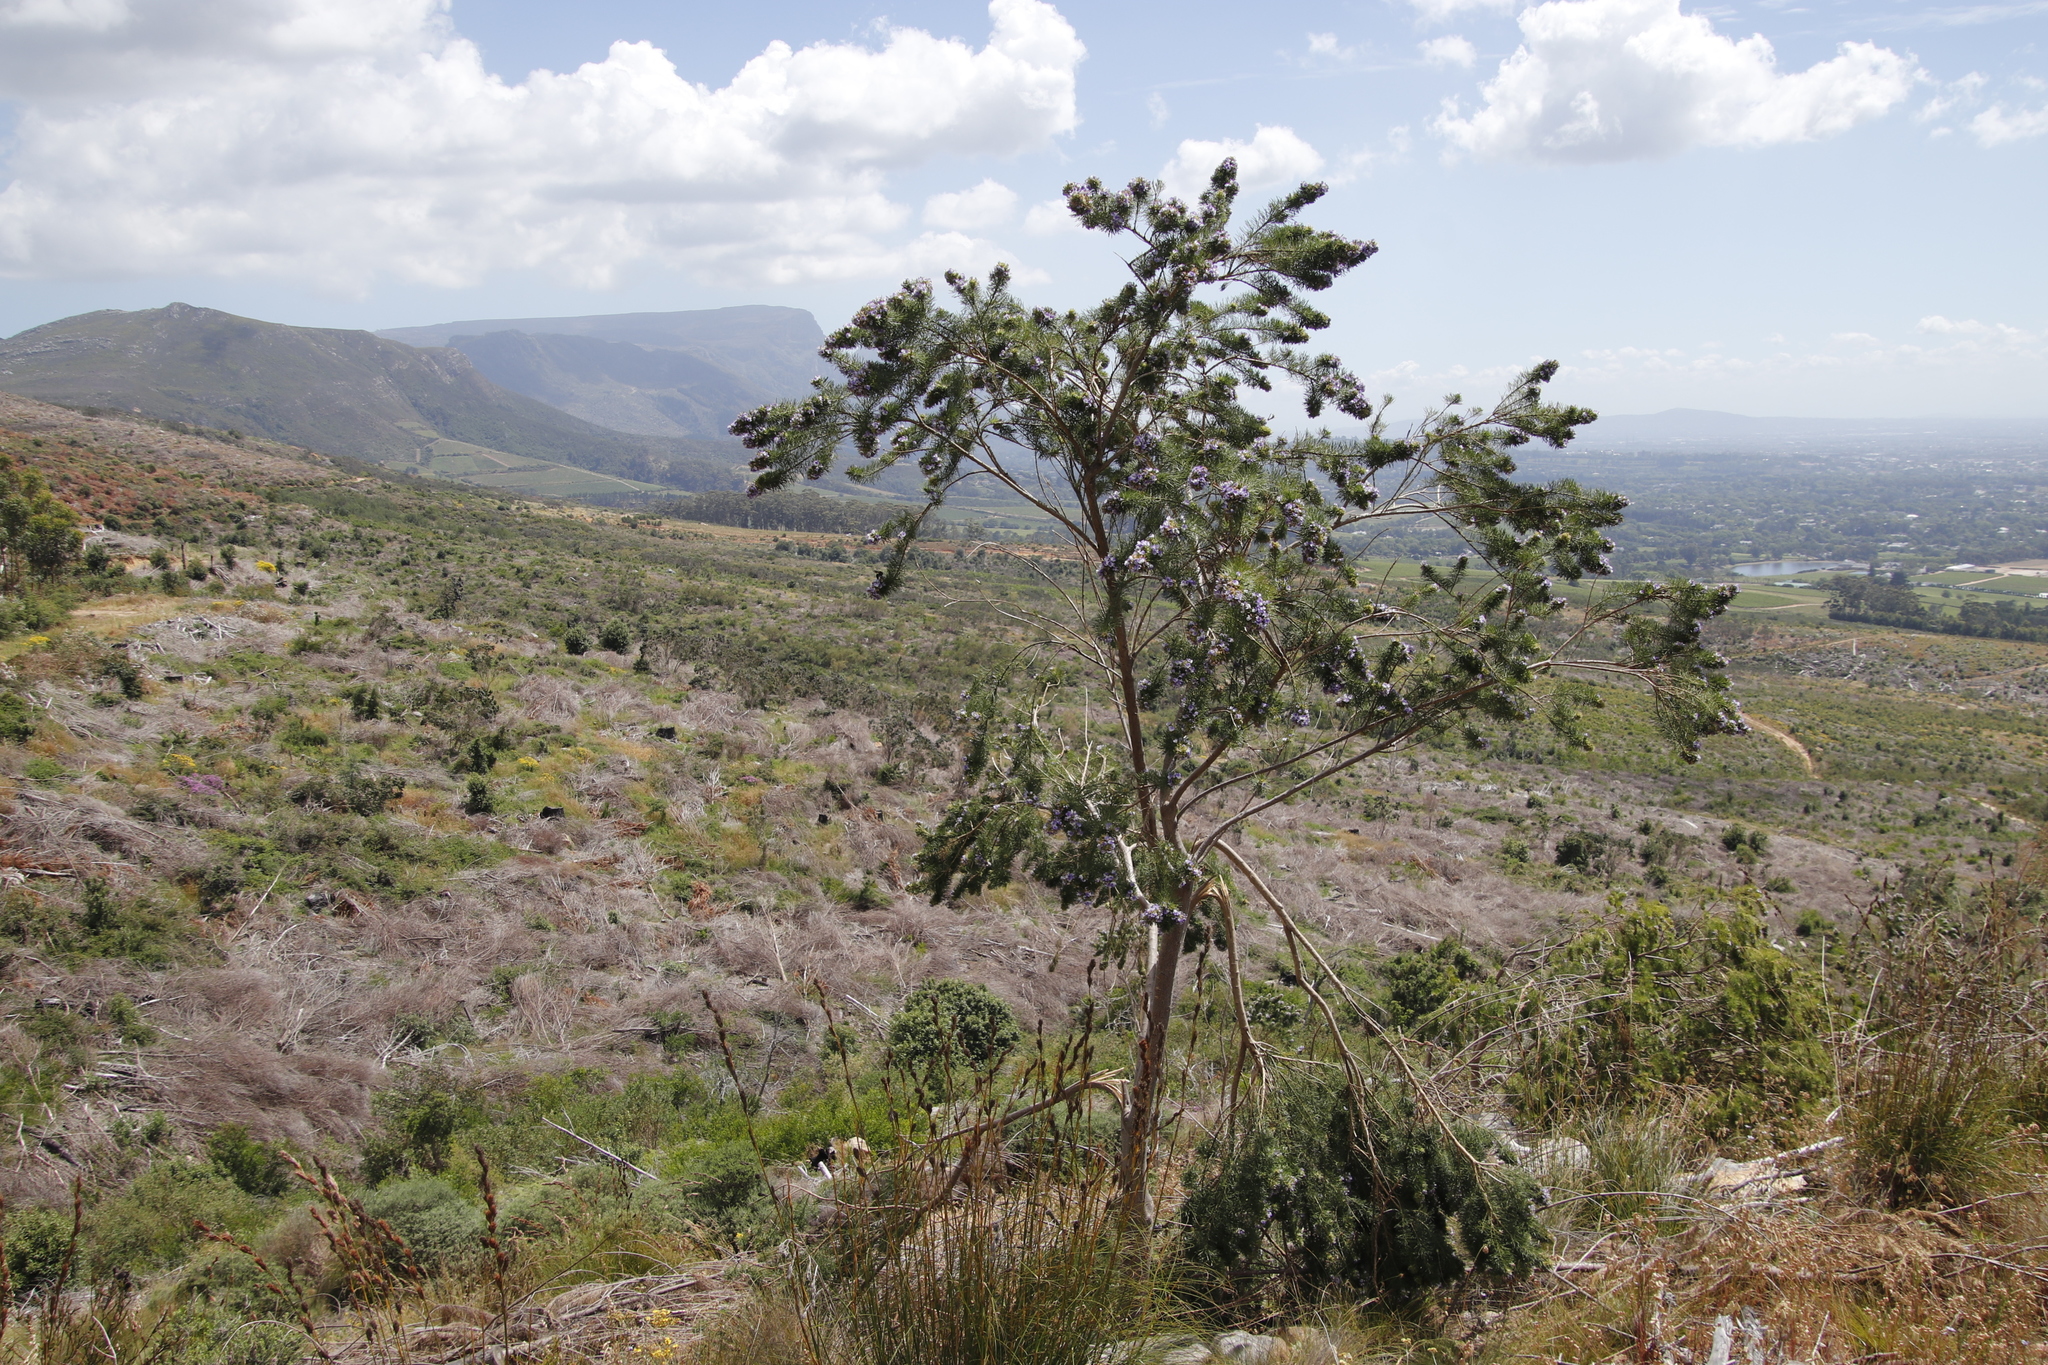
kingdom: Plantae
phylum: Tracheophyta
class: Magnoliopsida
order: Fabales
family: Fabaceae
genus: Psoralea
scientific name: Psoralea pinnata
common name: African scurfpea
